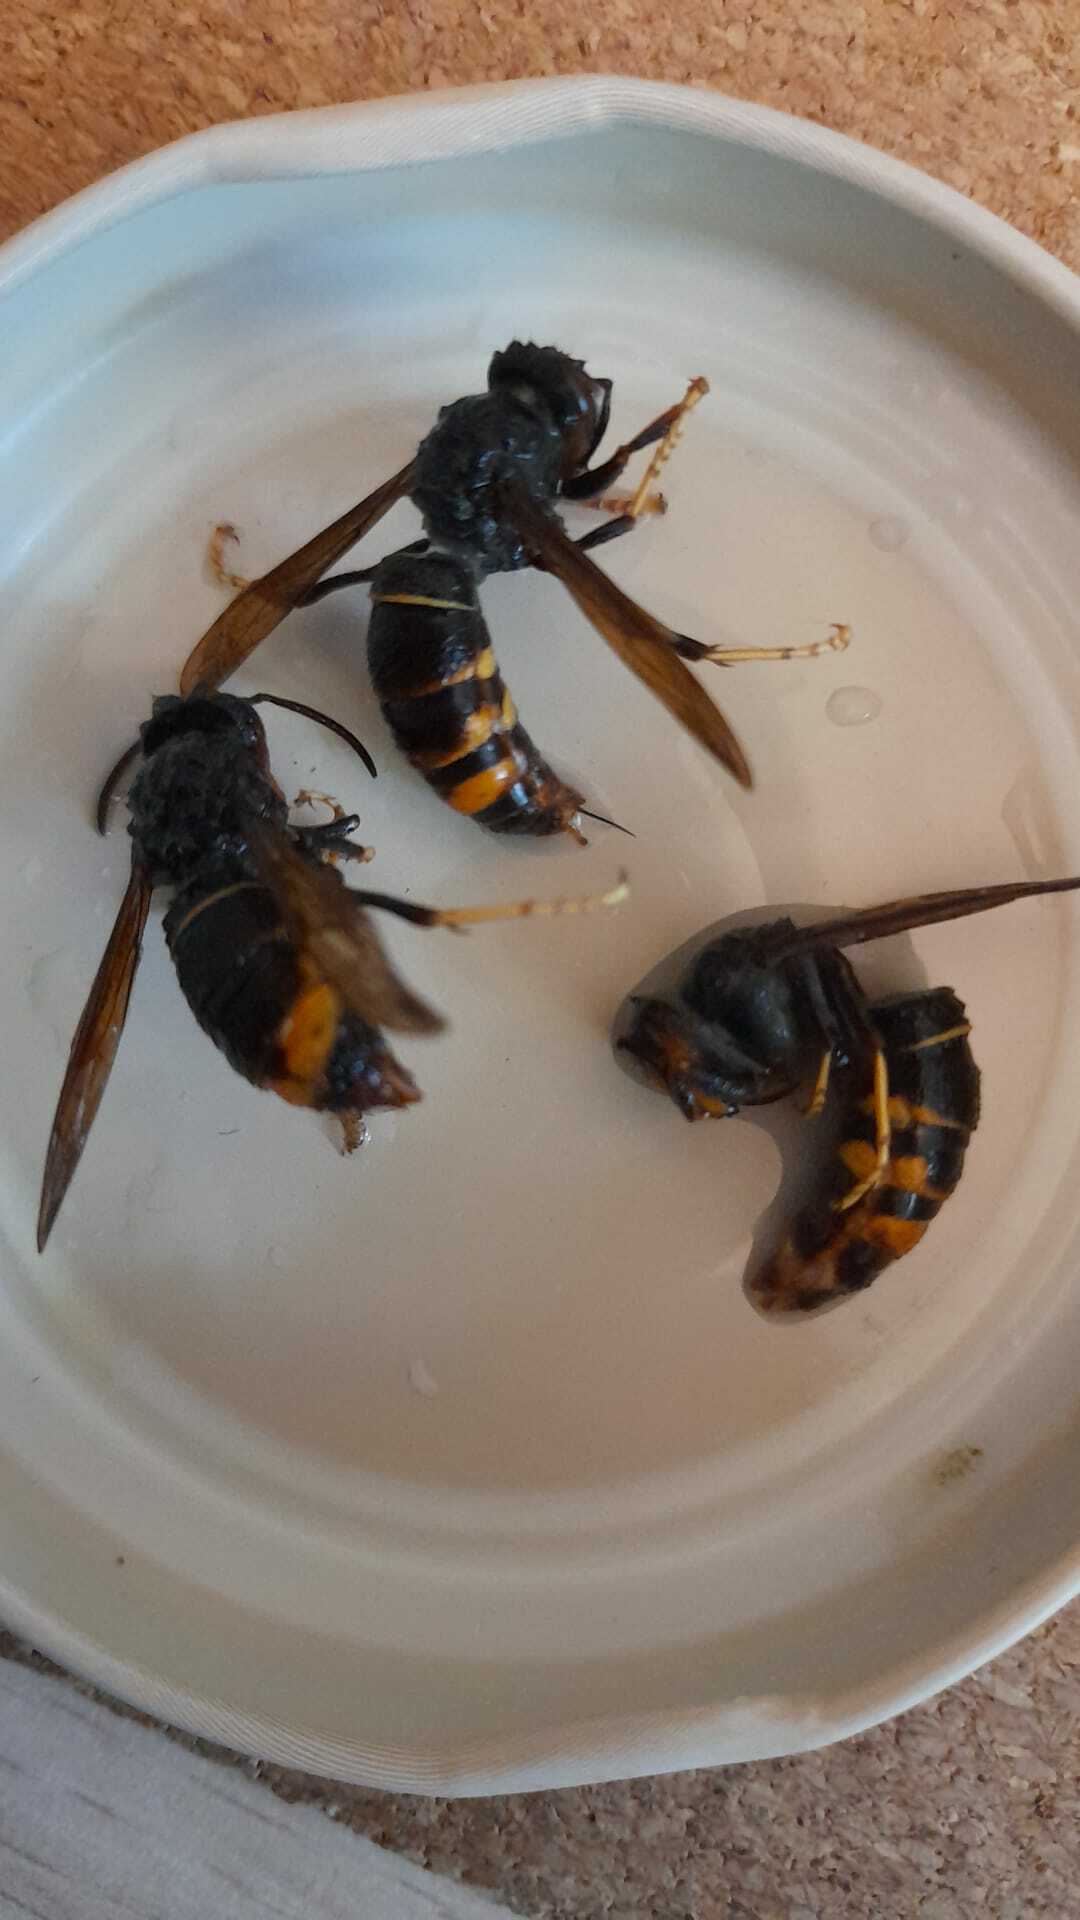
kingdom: Animalia
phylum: Arthropoda
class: Insecta
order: Hymenoptera
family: Vespidae
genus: Vespa
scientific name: Vespa velutina
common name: Asian hornet
